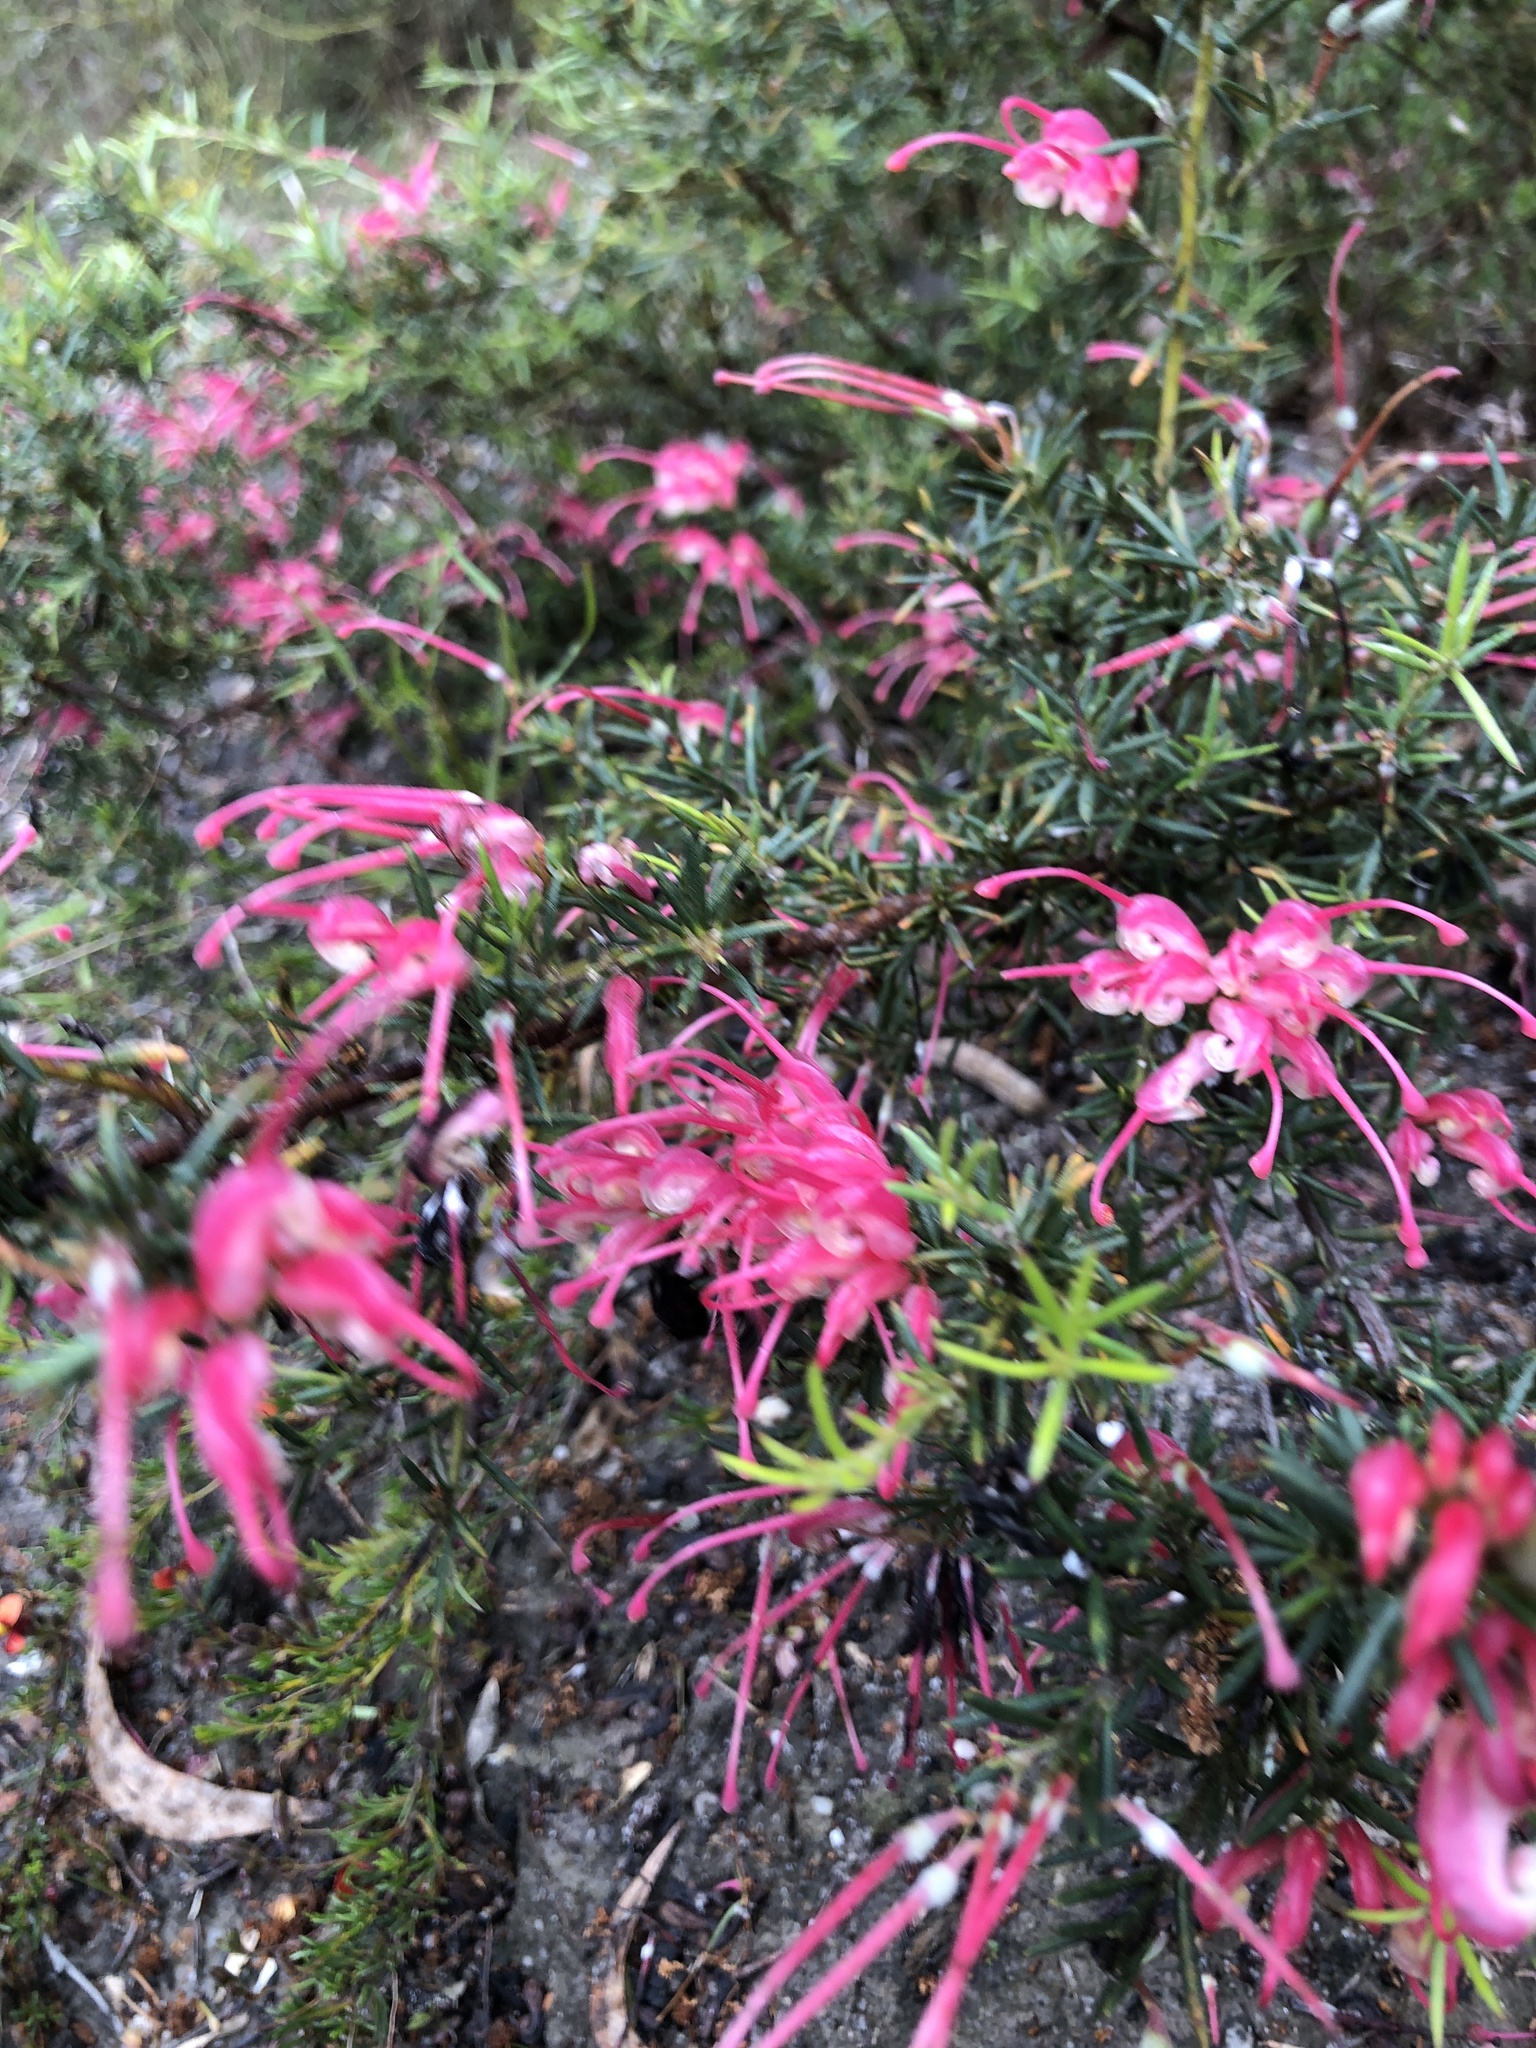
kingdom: Plantae
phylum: Tracheophyta
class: Magnoliopsida
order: Proteales
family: Proteaceae
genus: Grevillea
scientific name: Grevillea lavandulacea
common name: Lavender grevillea
